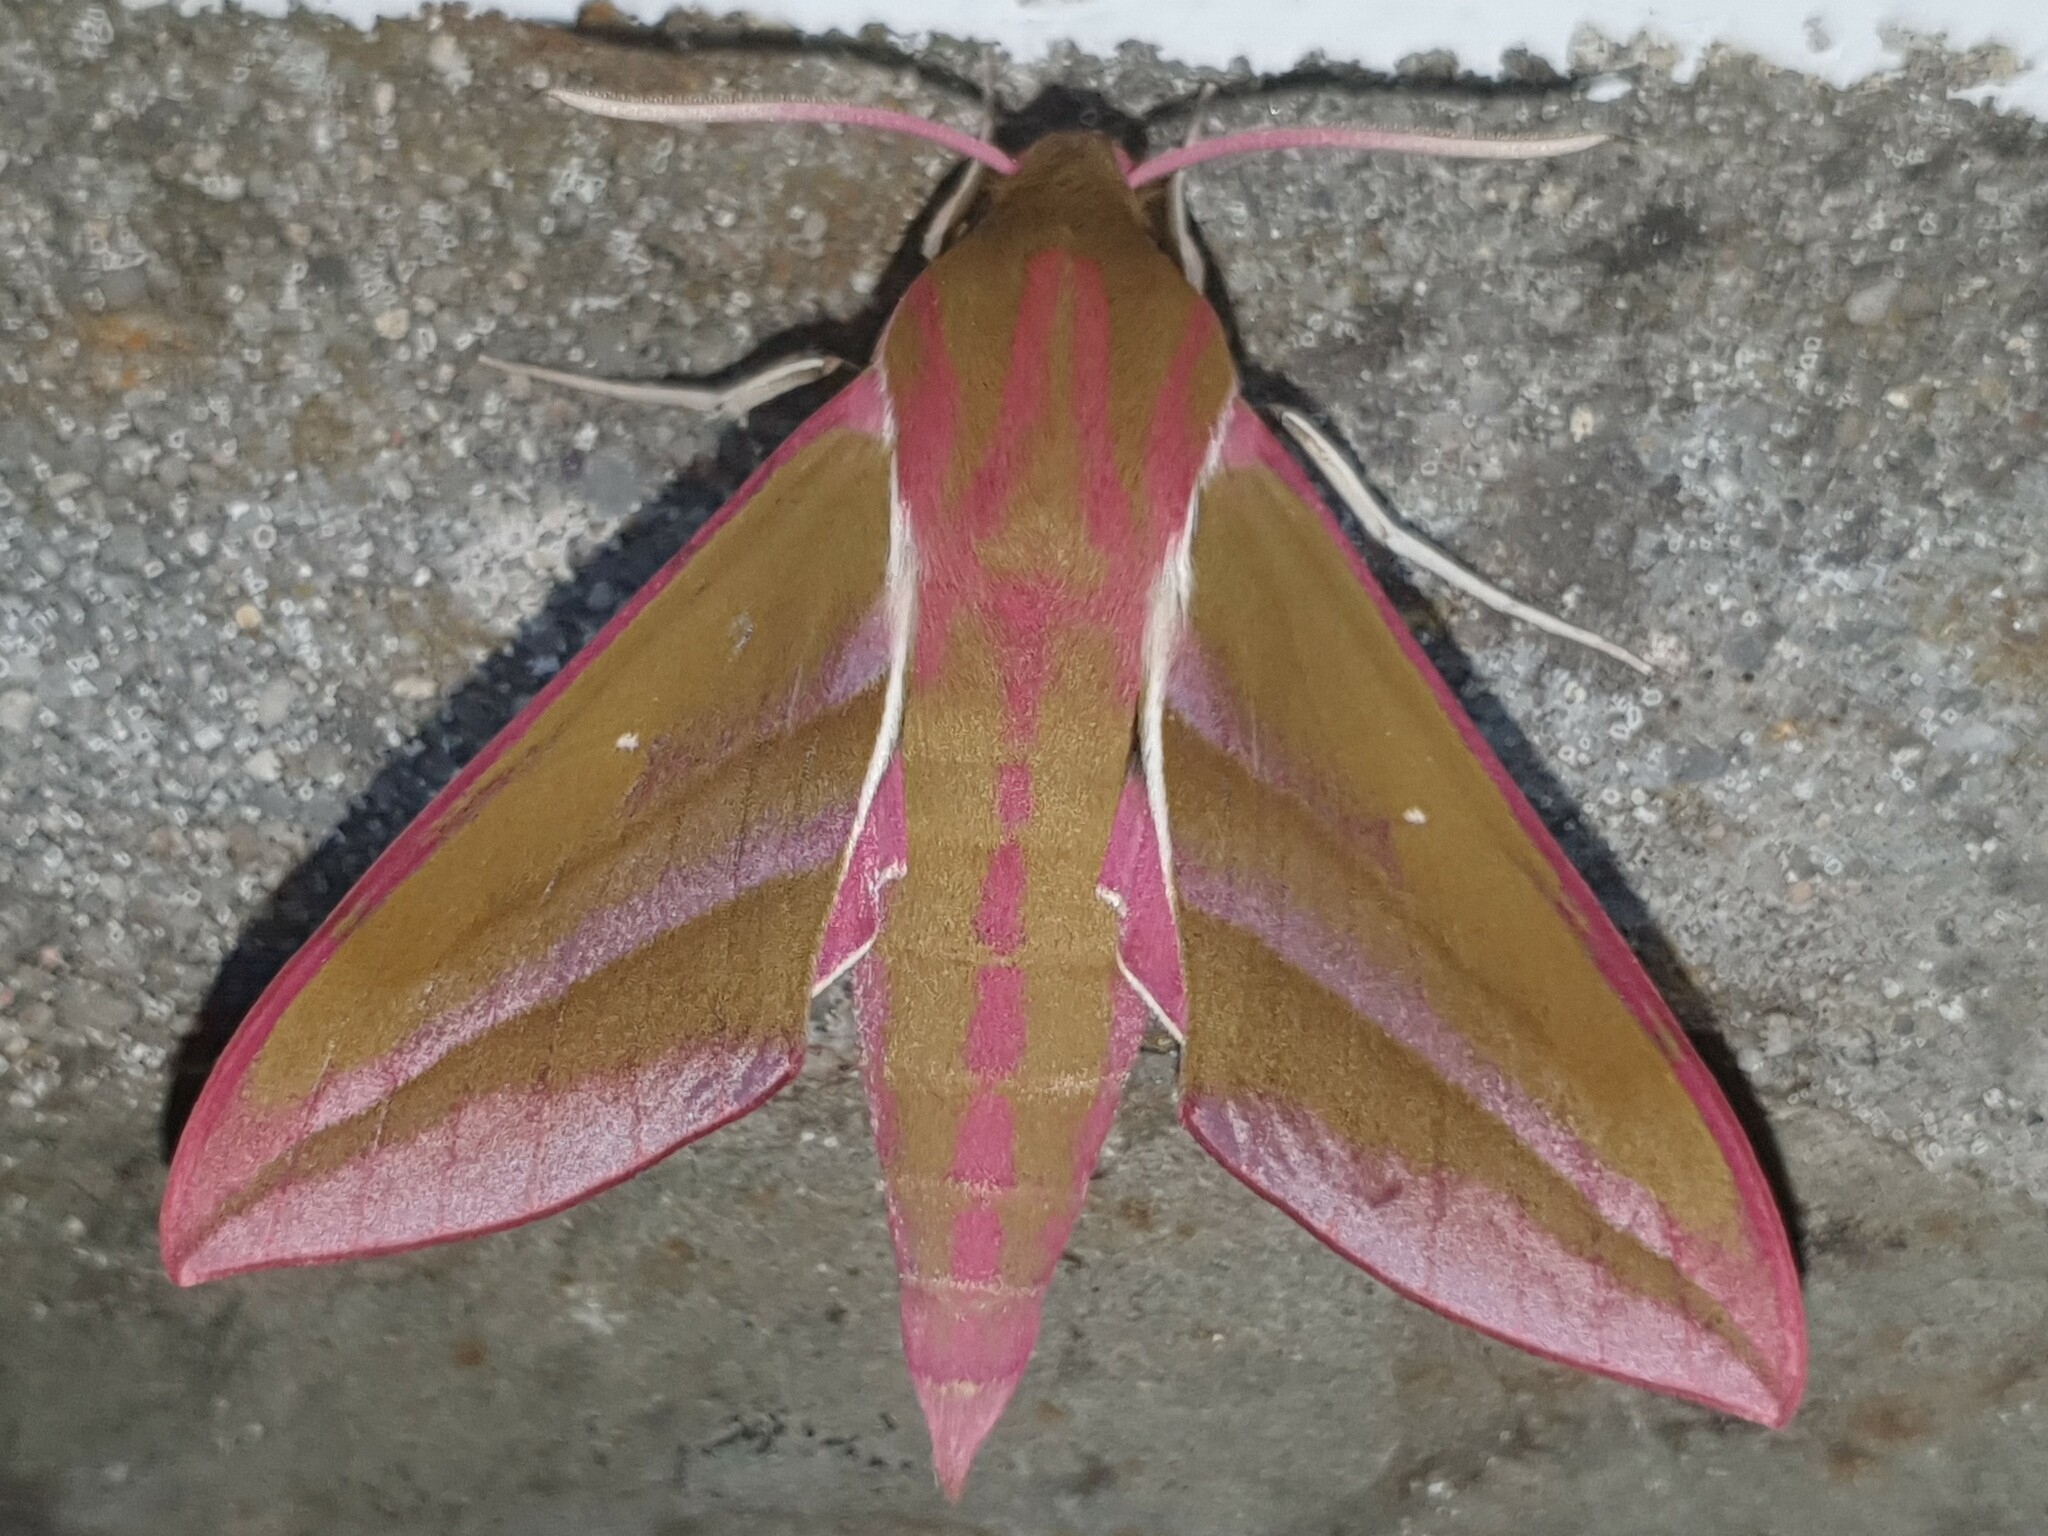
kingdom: Animalia
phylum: Arthropoda
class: Insecta
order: Lepidoptera
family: Sphingidae
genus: Deilephila
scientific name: Deilephila elpenor
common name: Elephant hawk-moth
